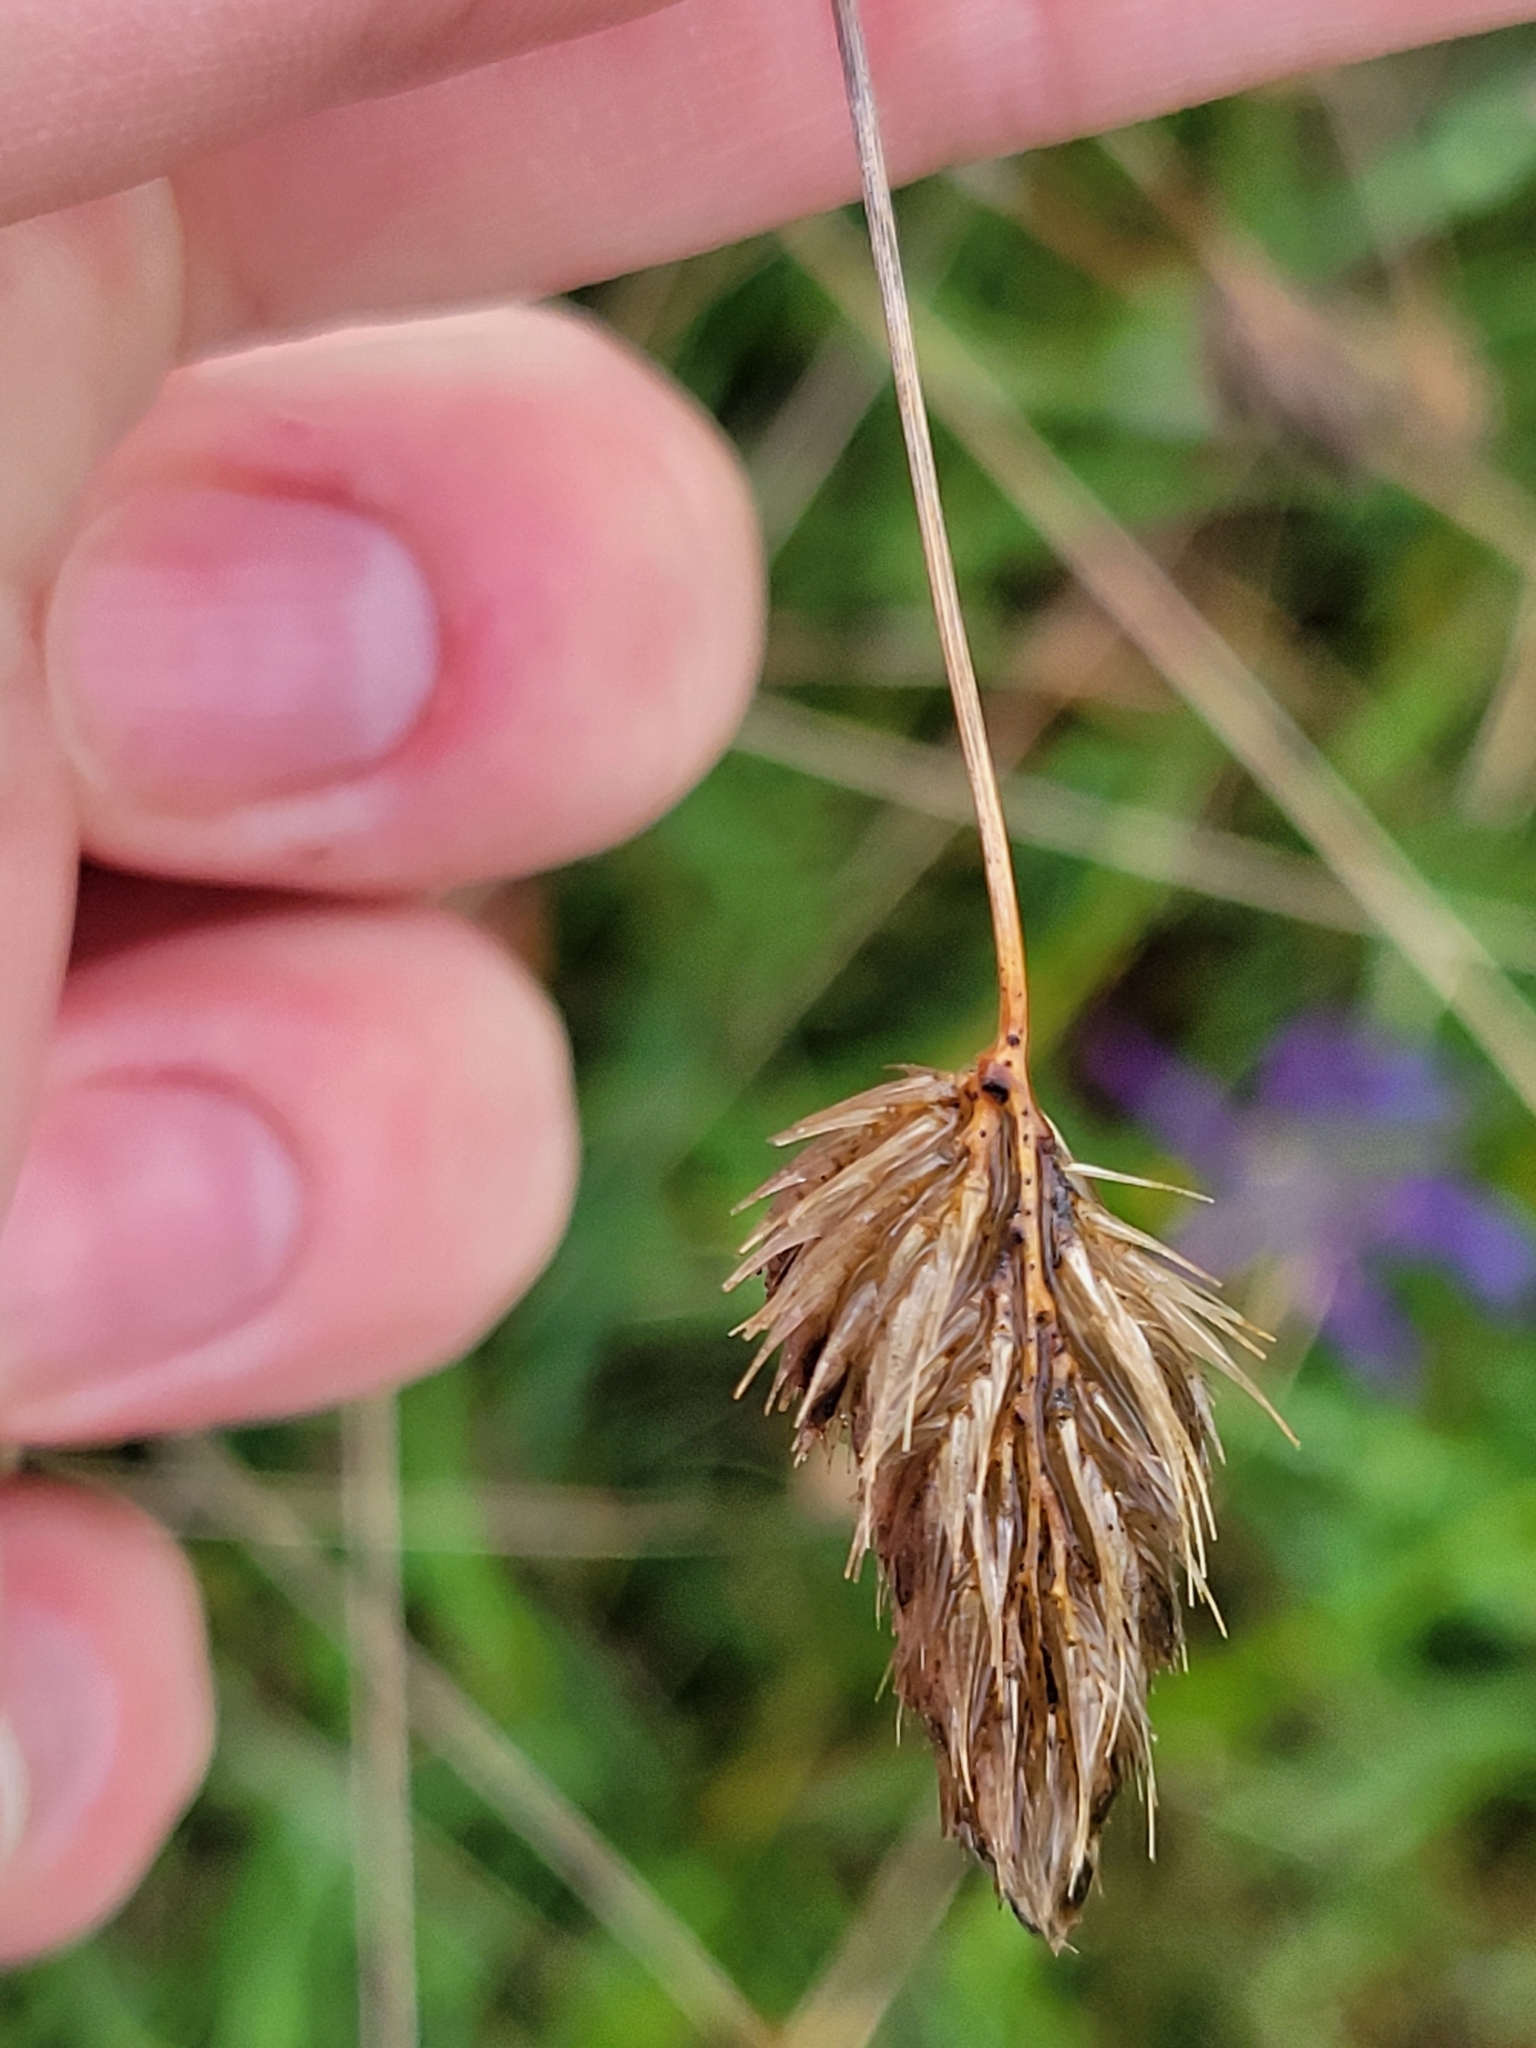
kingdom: Plantae
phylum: Tracheophyta
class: Liliopsida
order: Poales
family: Poaceae
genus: Cynosurus
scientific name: Cynosurus echinatus
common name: Rough dog's-tail
